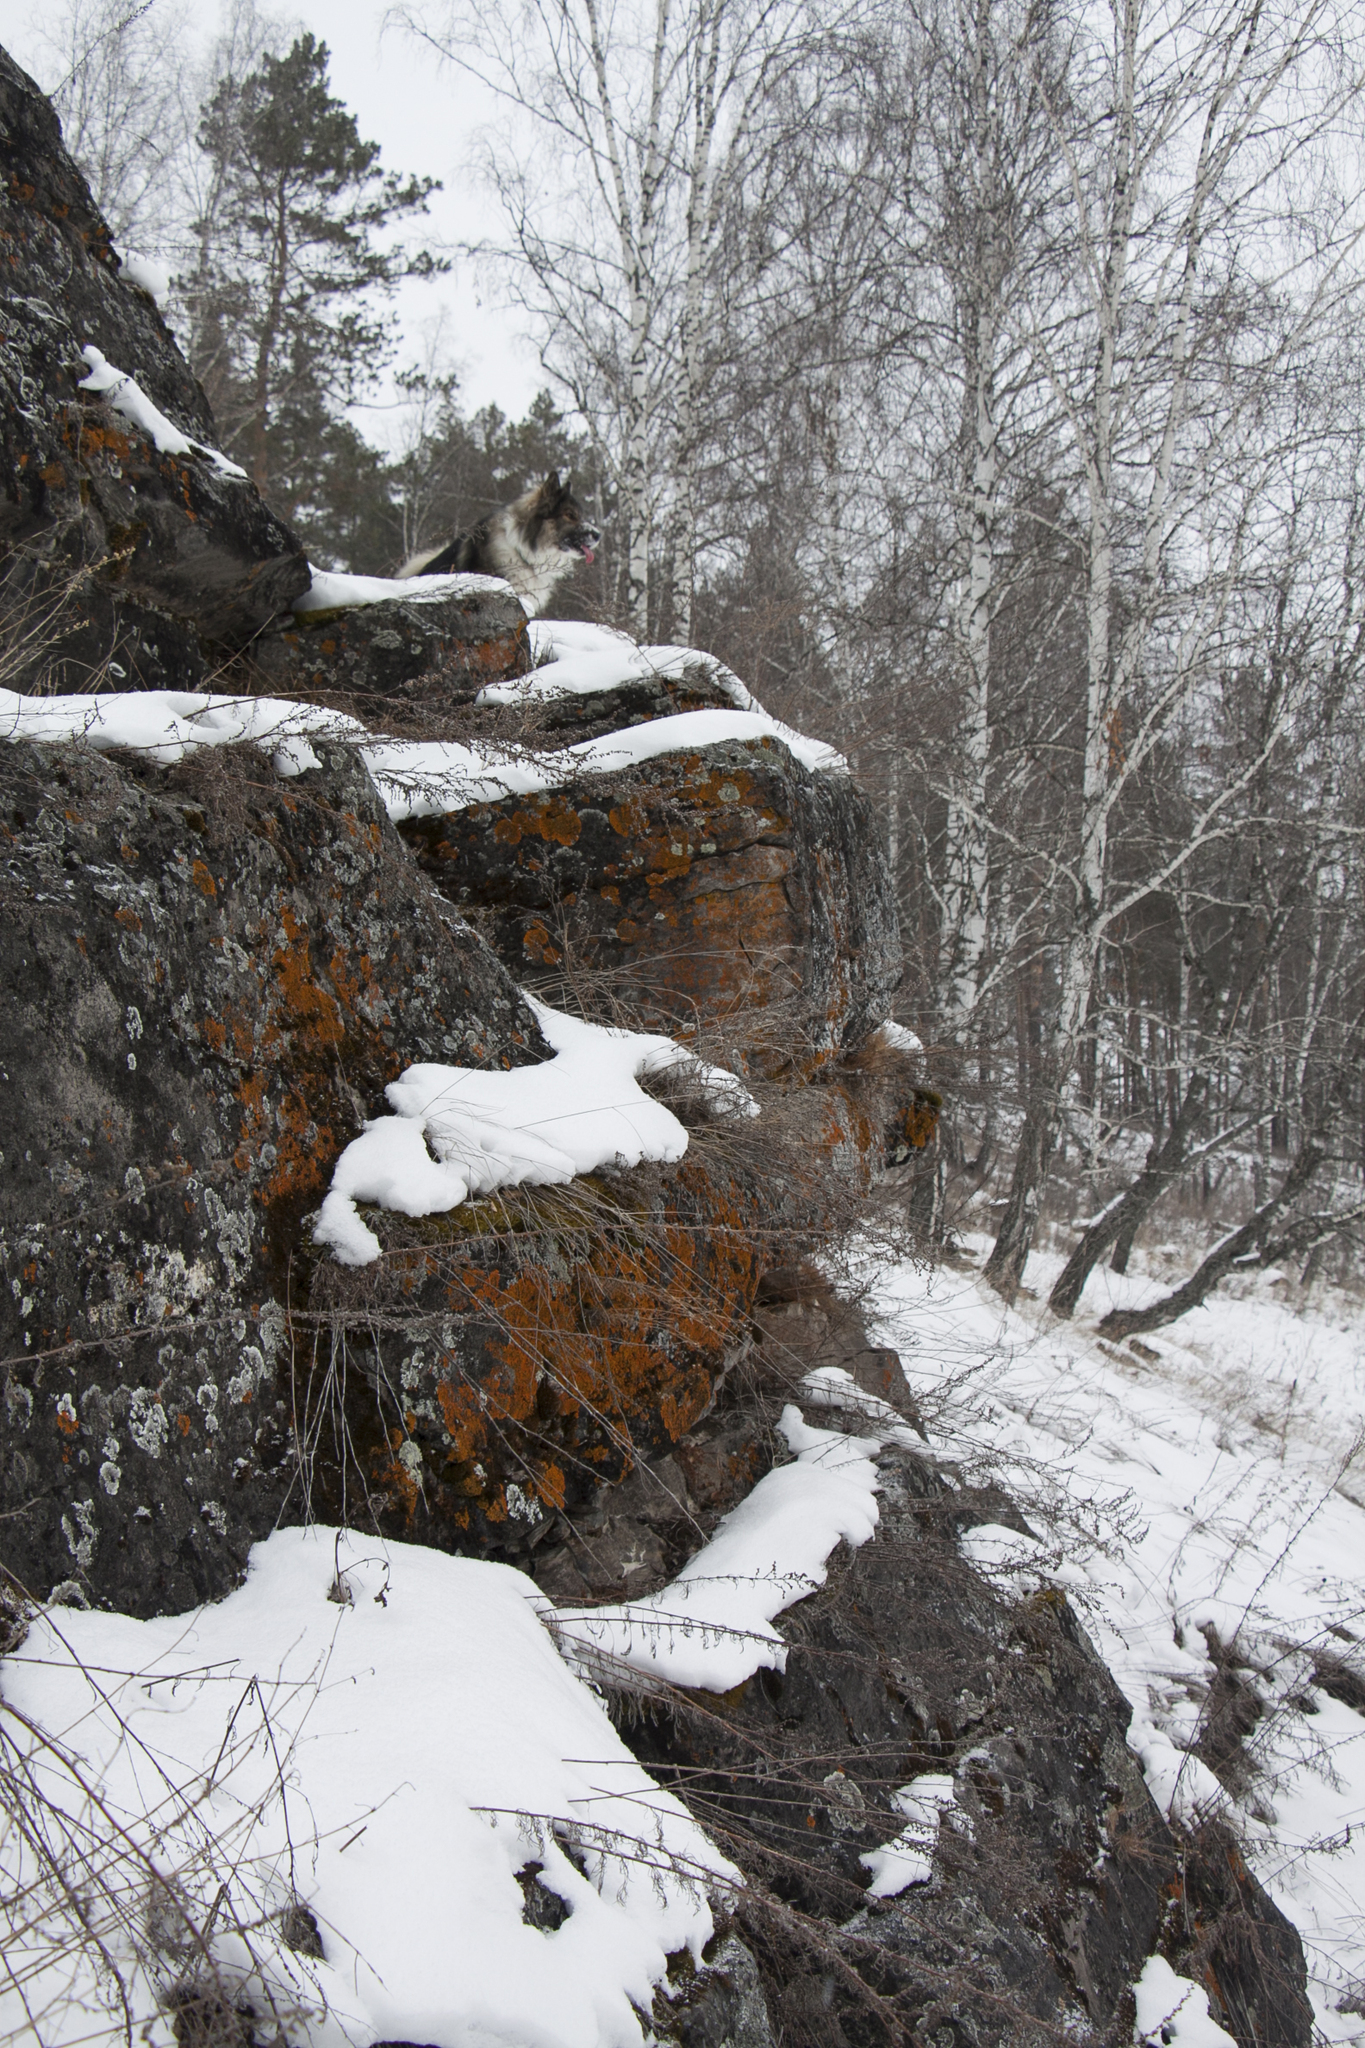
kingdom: Plantae
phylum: Tracheophyta
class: Magnoliopsida
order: Fagales
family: Betulaceae
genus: Betula
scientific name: Betula pendula
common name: Silver birch
